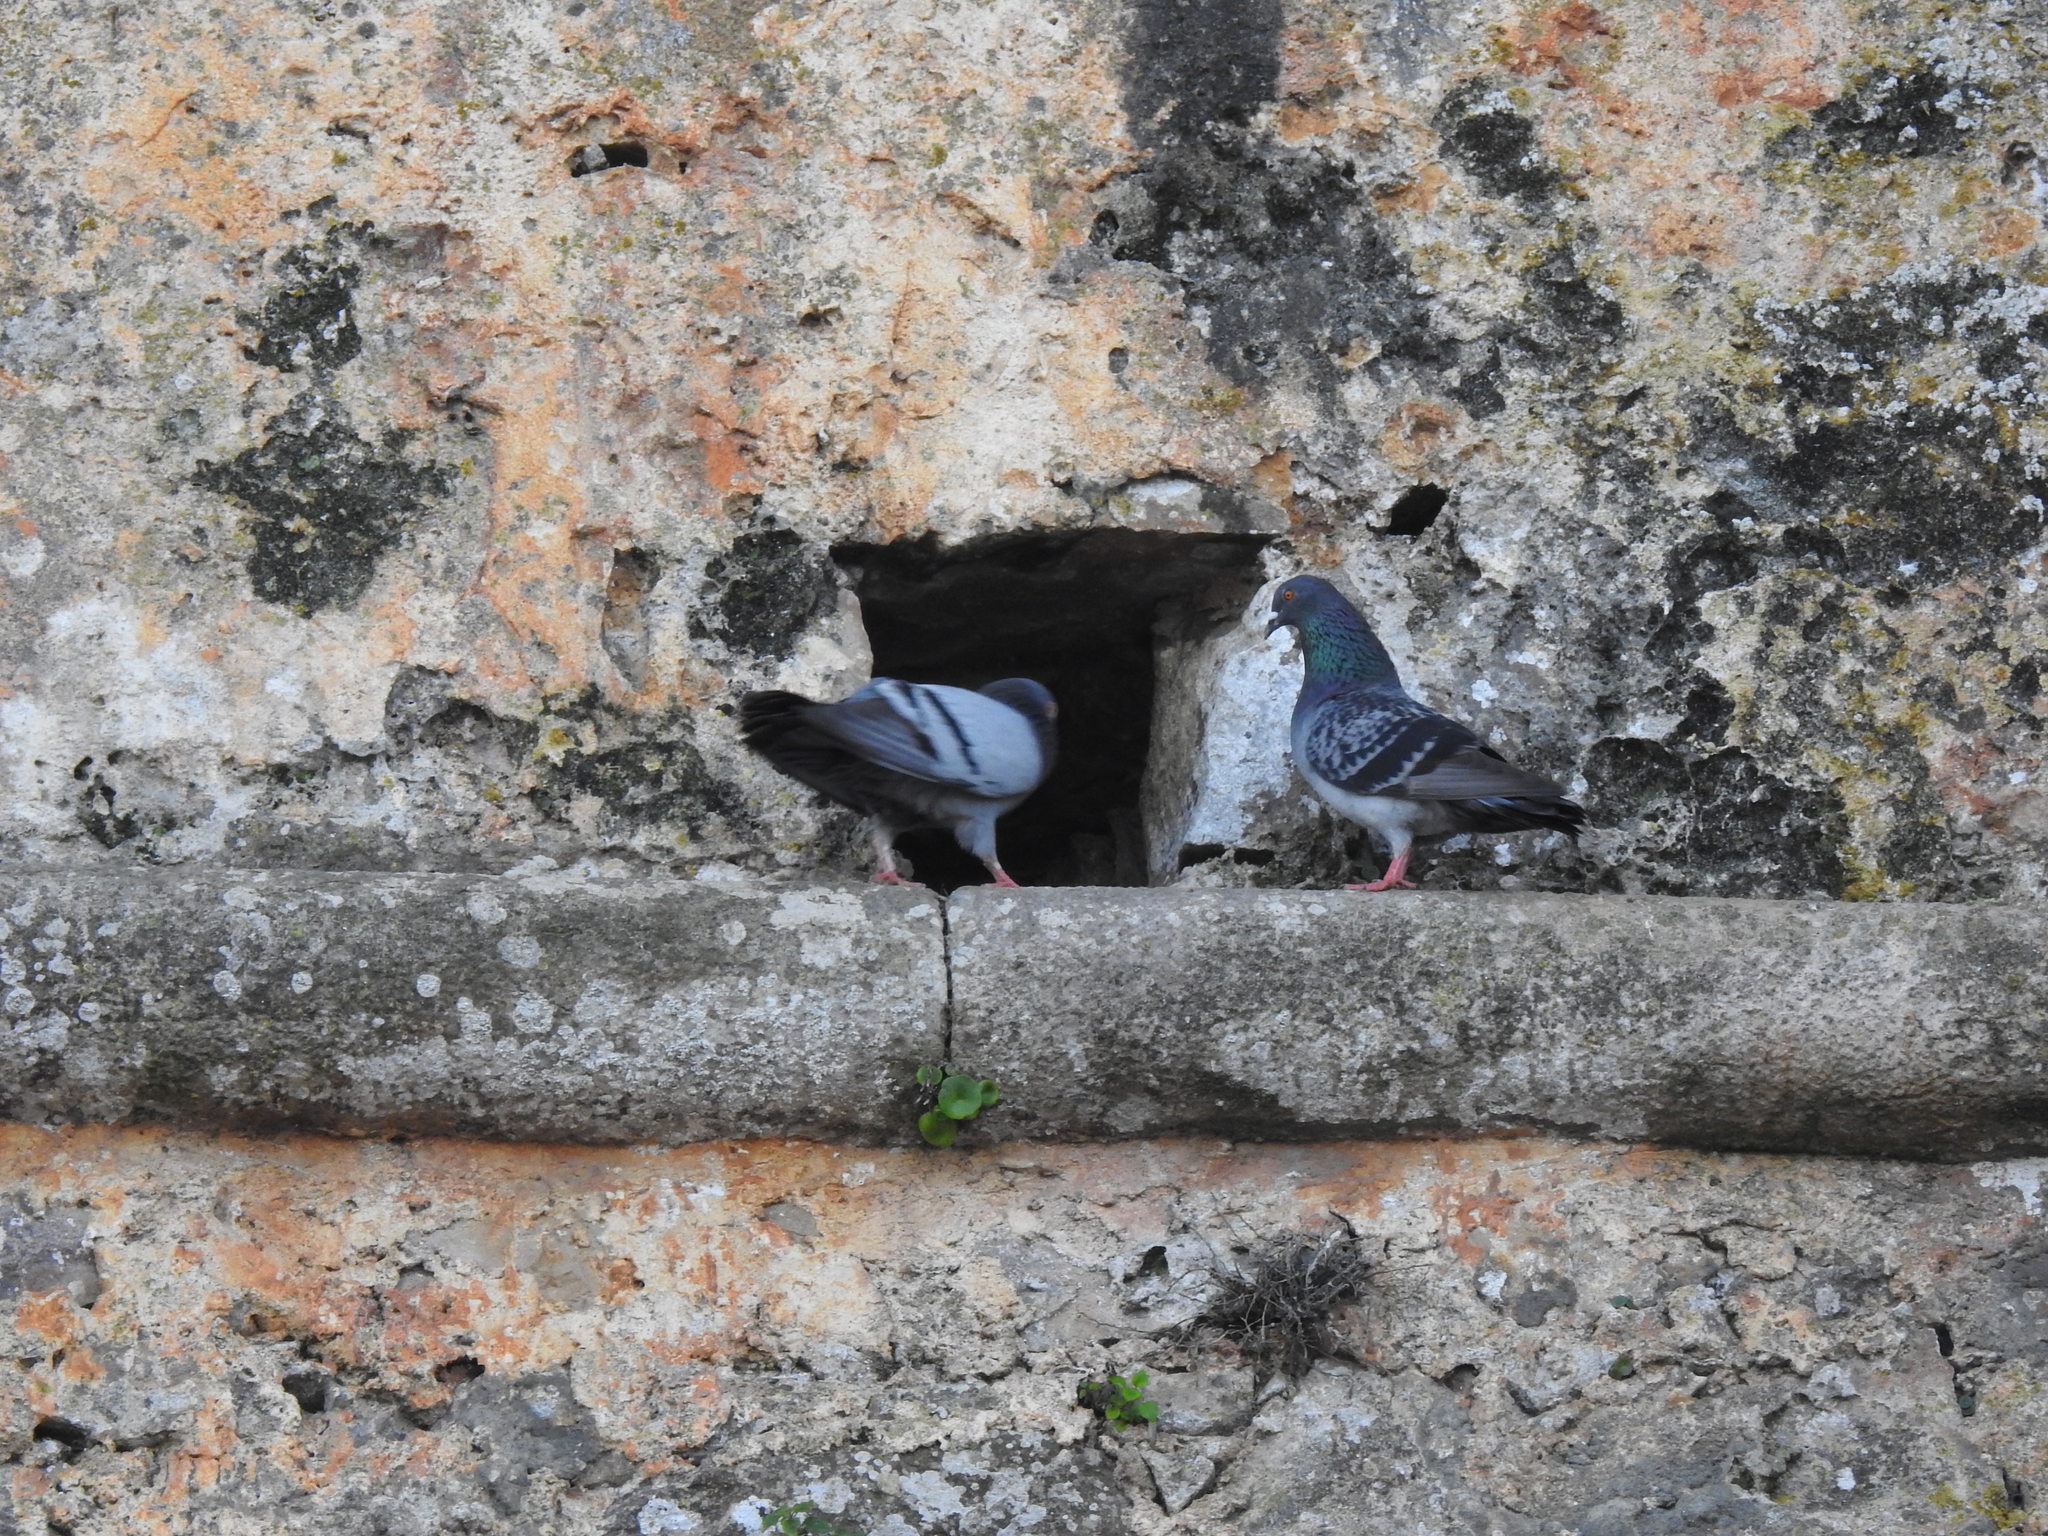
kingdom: Animalia
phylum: Chordata
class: Aves
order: Columbiformes
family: Columbidae
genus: Columba
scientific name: Columba livia
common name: Rock pigeon
